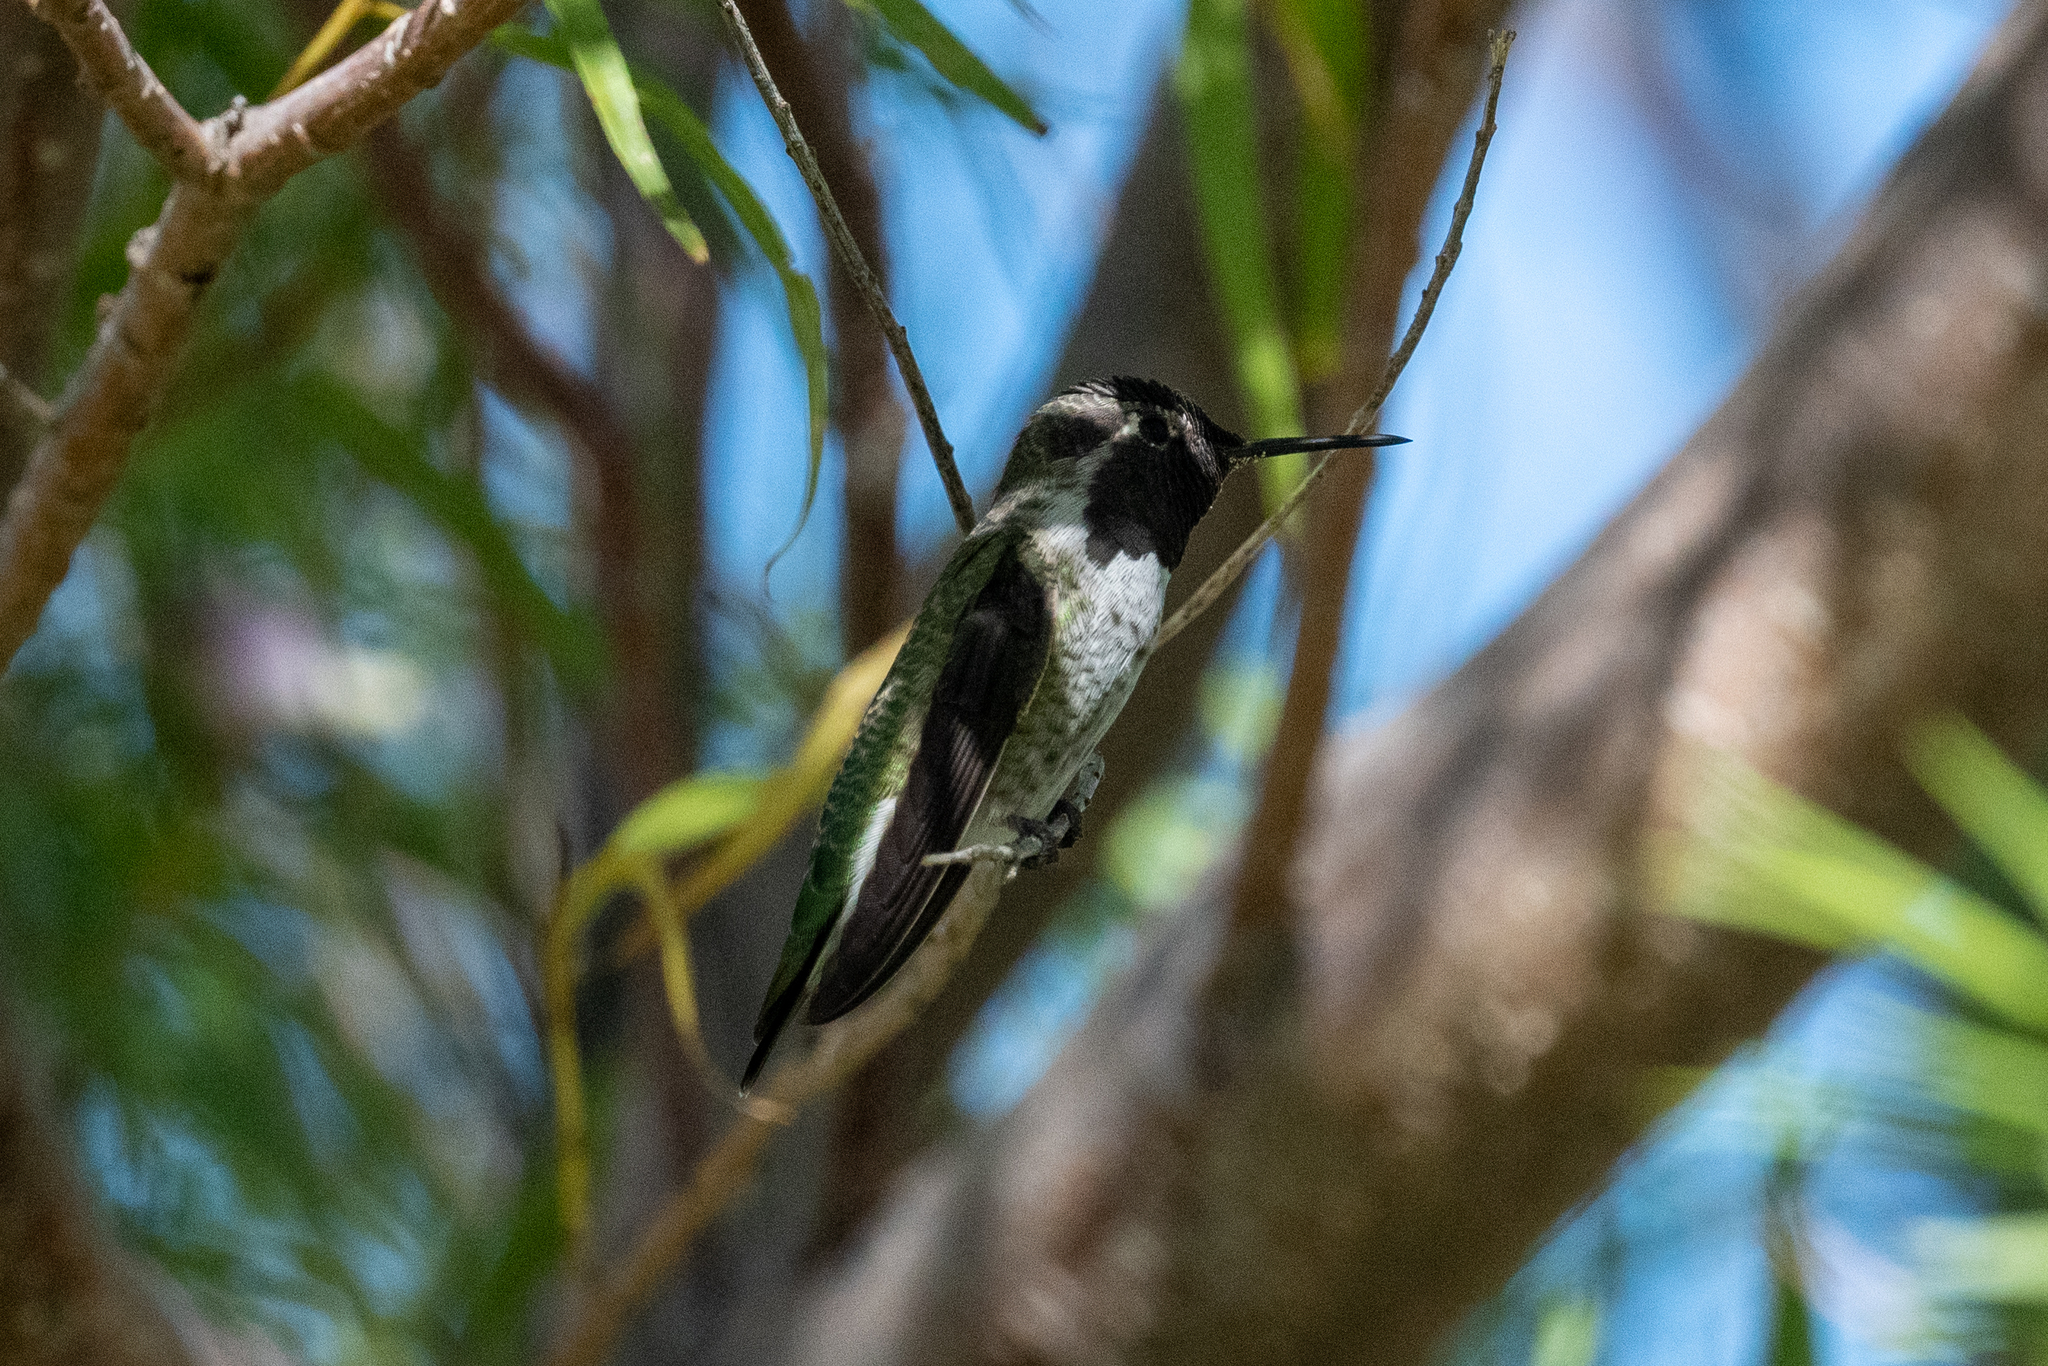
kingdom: Animalia
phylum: Chordata
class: Aves
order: Apodiformes
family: Trochilidae
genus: Calypte
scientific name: Calypte anna
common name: Anna's hummingbird
